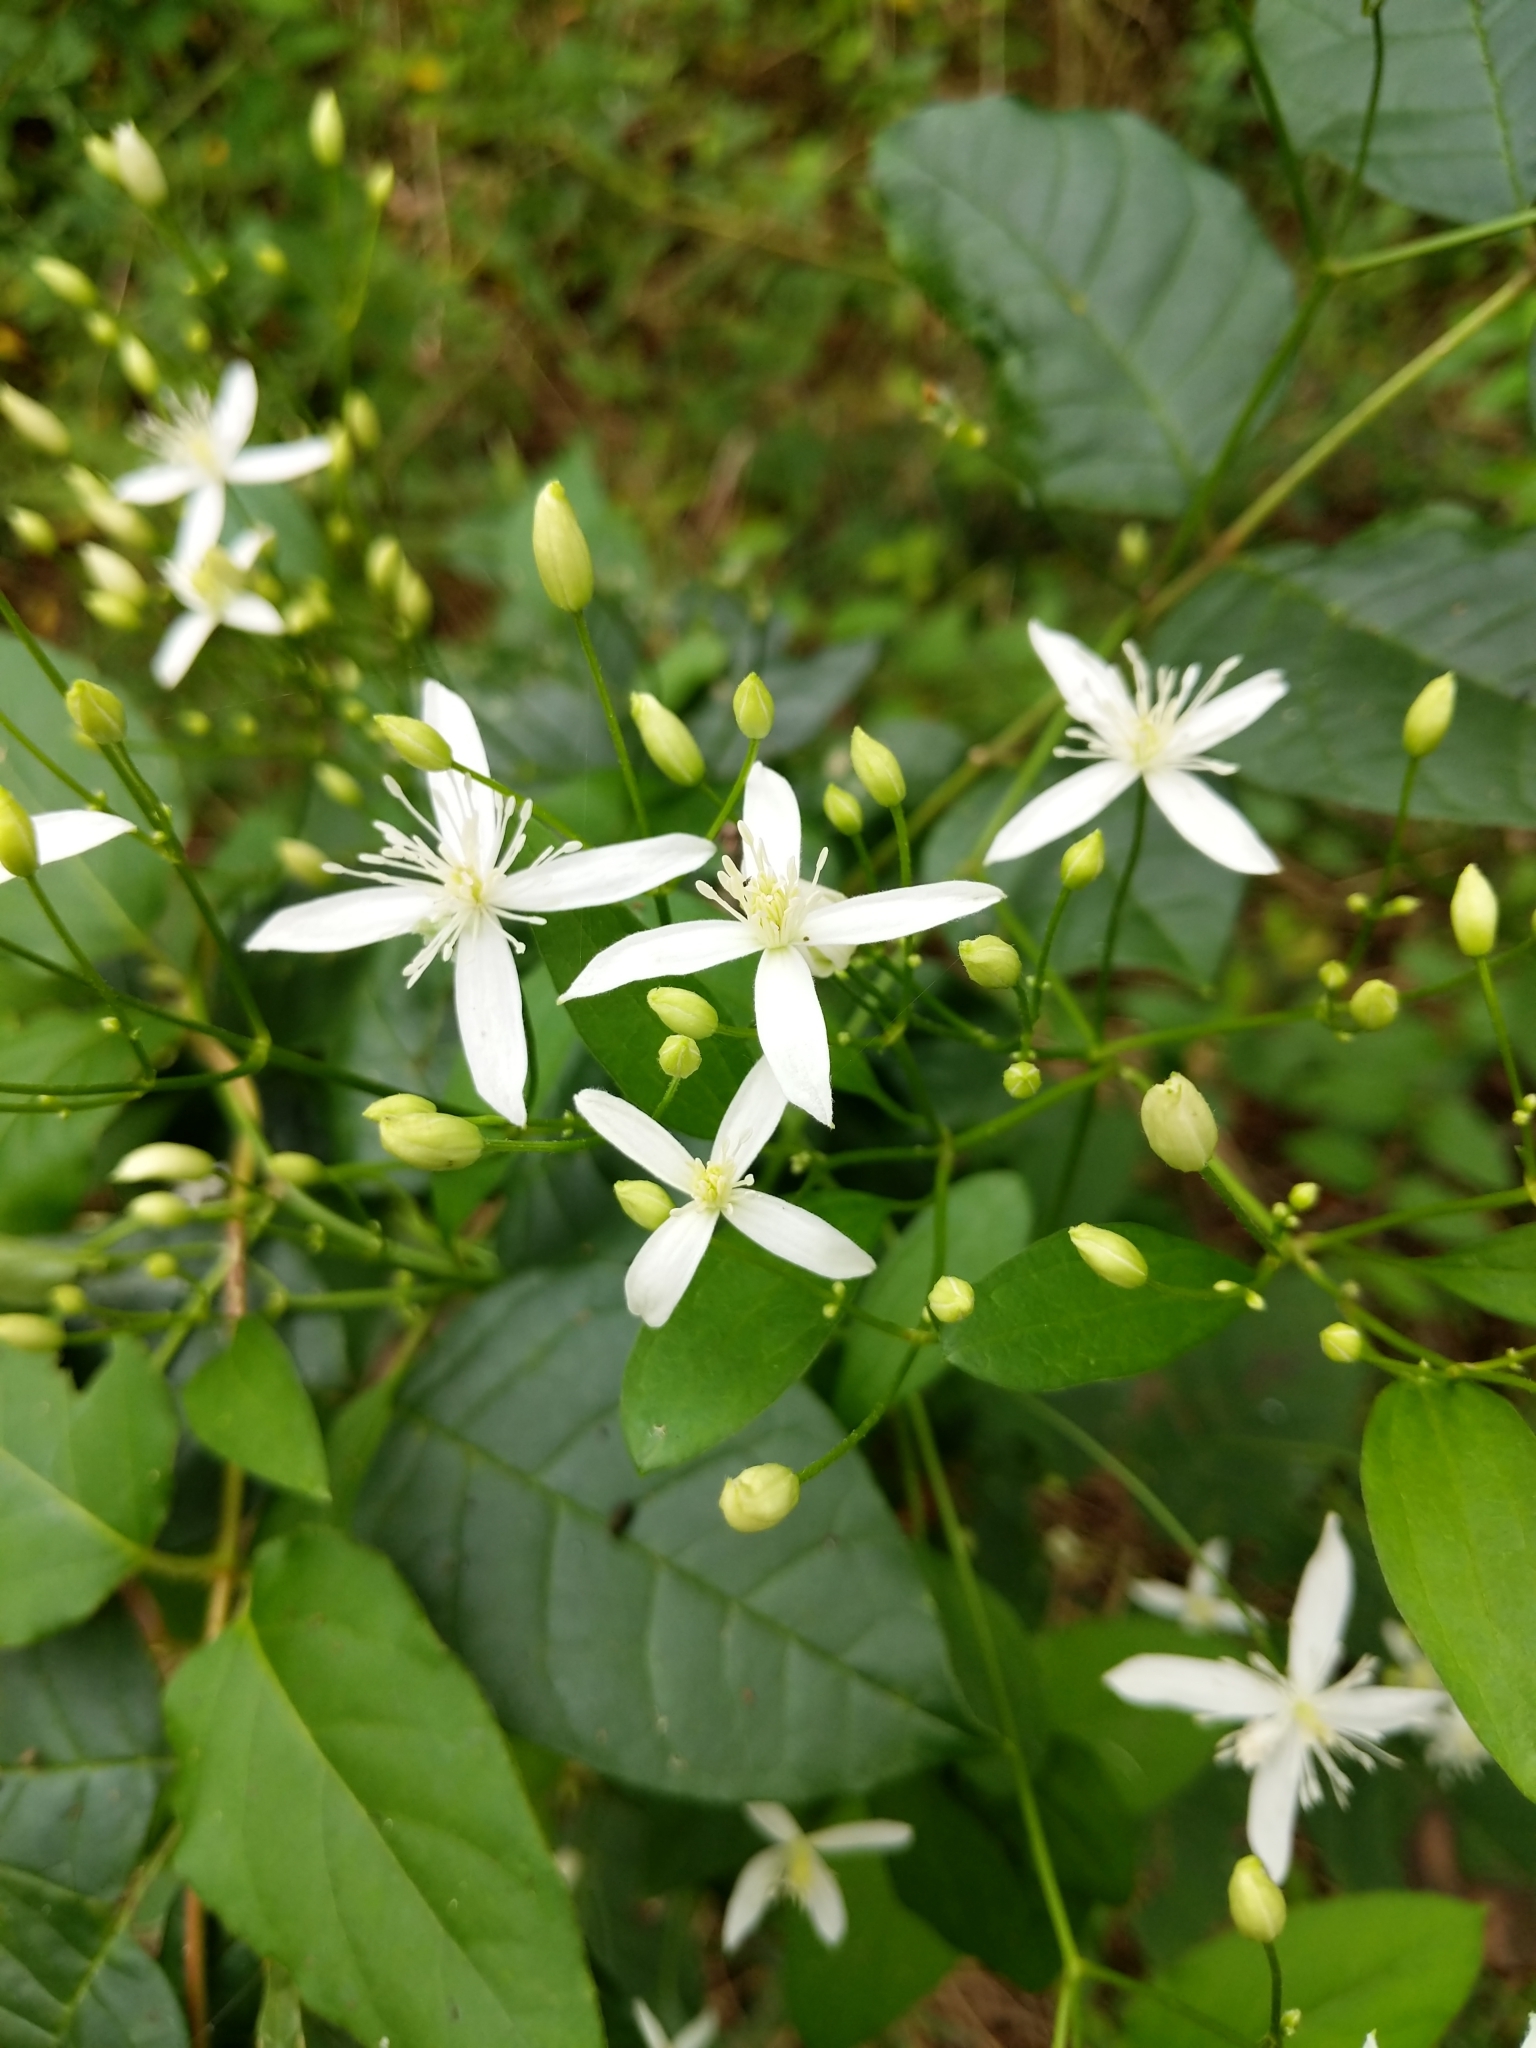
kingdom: Plantae
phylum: Tracheophyta
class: Magnoliopsida
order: Ranunculales
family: Ranunculaceae
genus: Clematis
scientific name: Clematis terniflora
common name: Sweet autumn clematis
